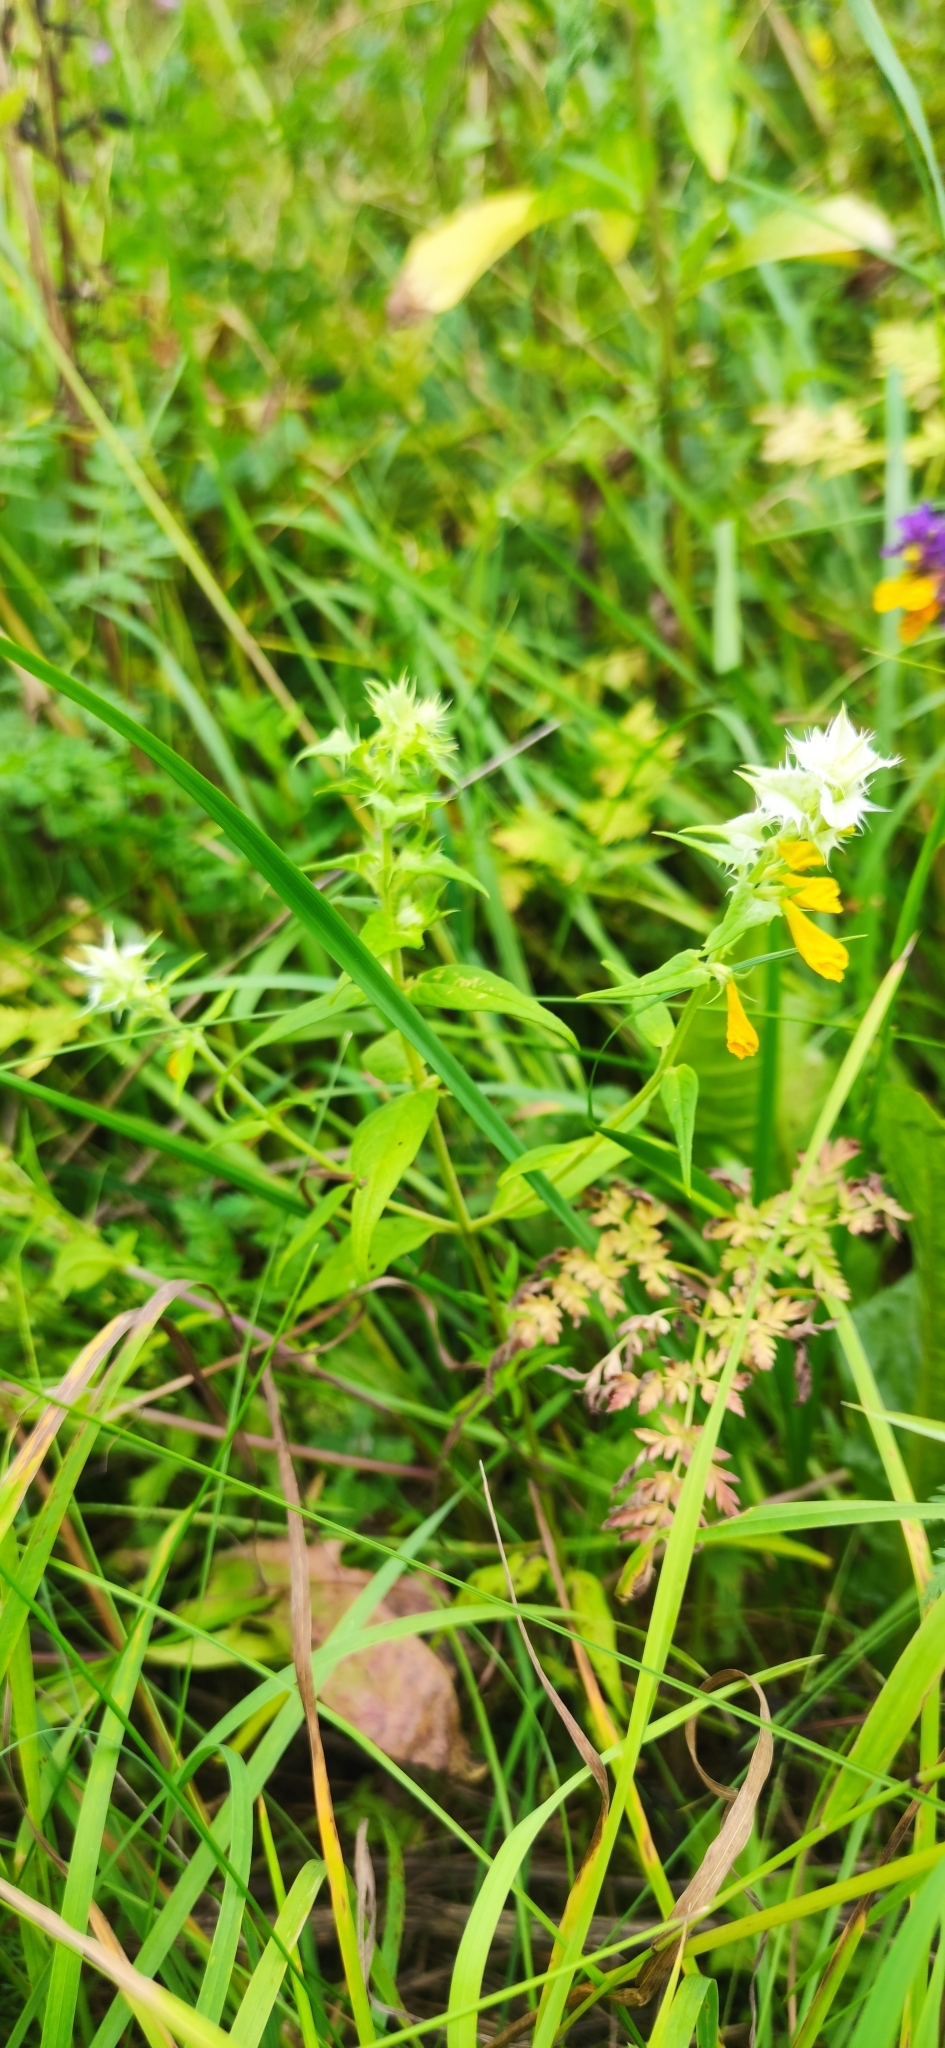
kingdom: Plantae
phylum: Tracheophyta
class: Magnoliopsida
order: Lamiales
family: Orobanchaceae
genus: Melampyrum
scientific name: Melampyrum nemorosum
